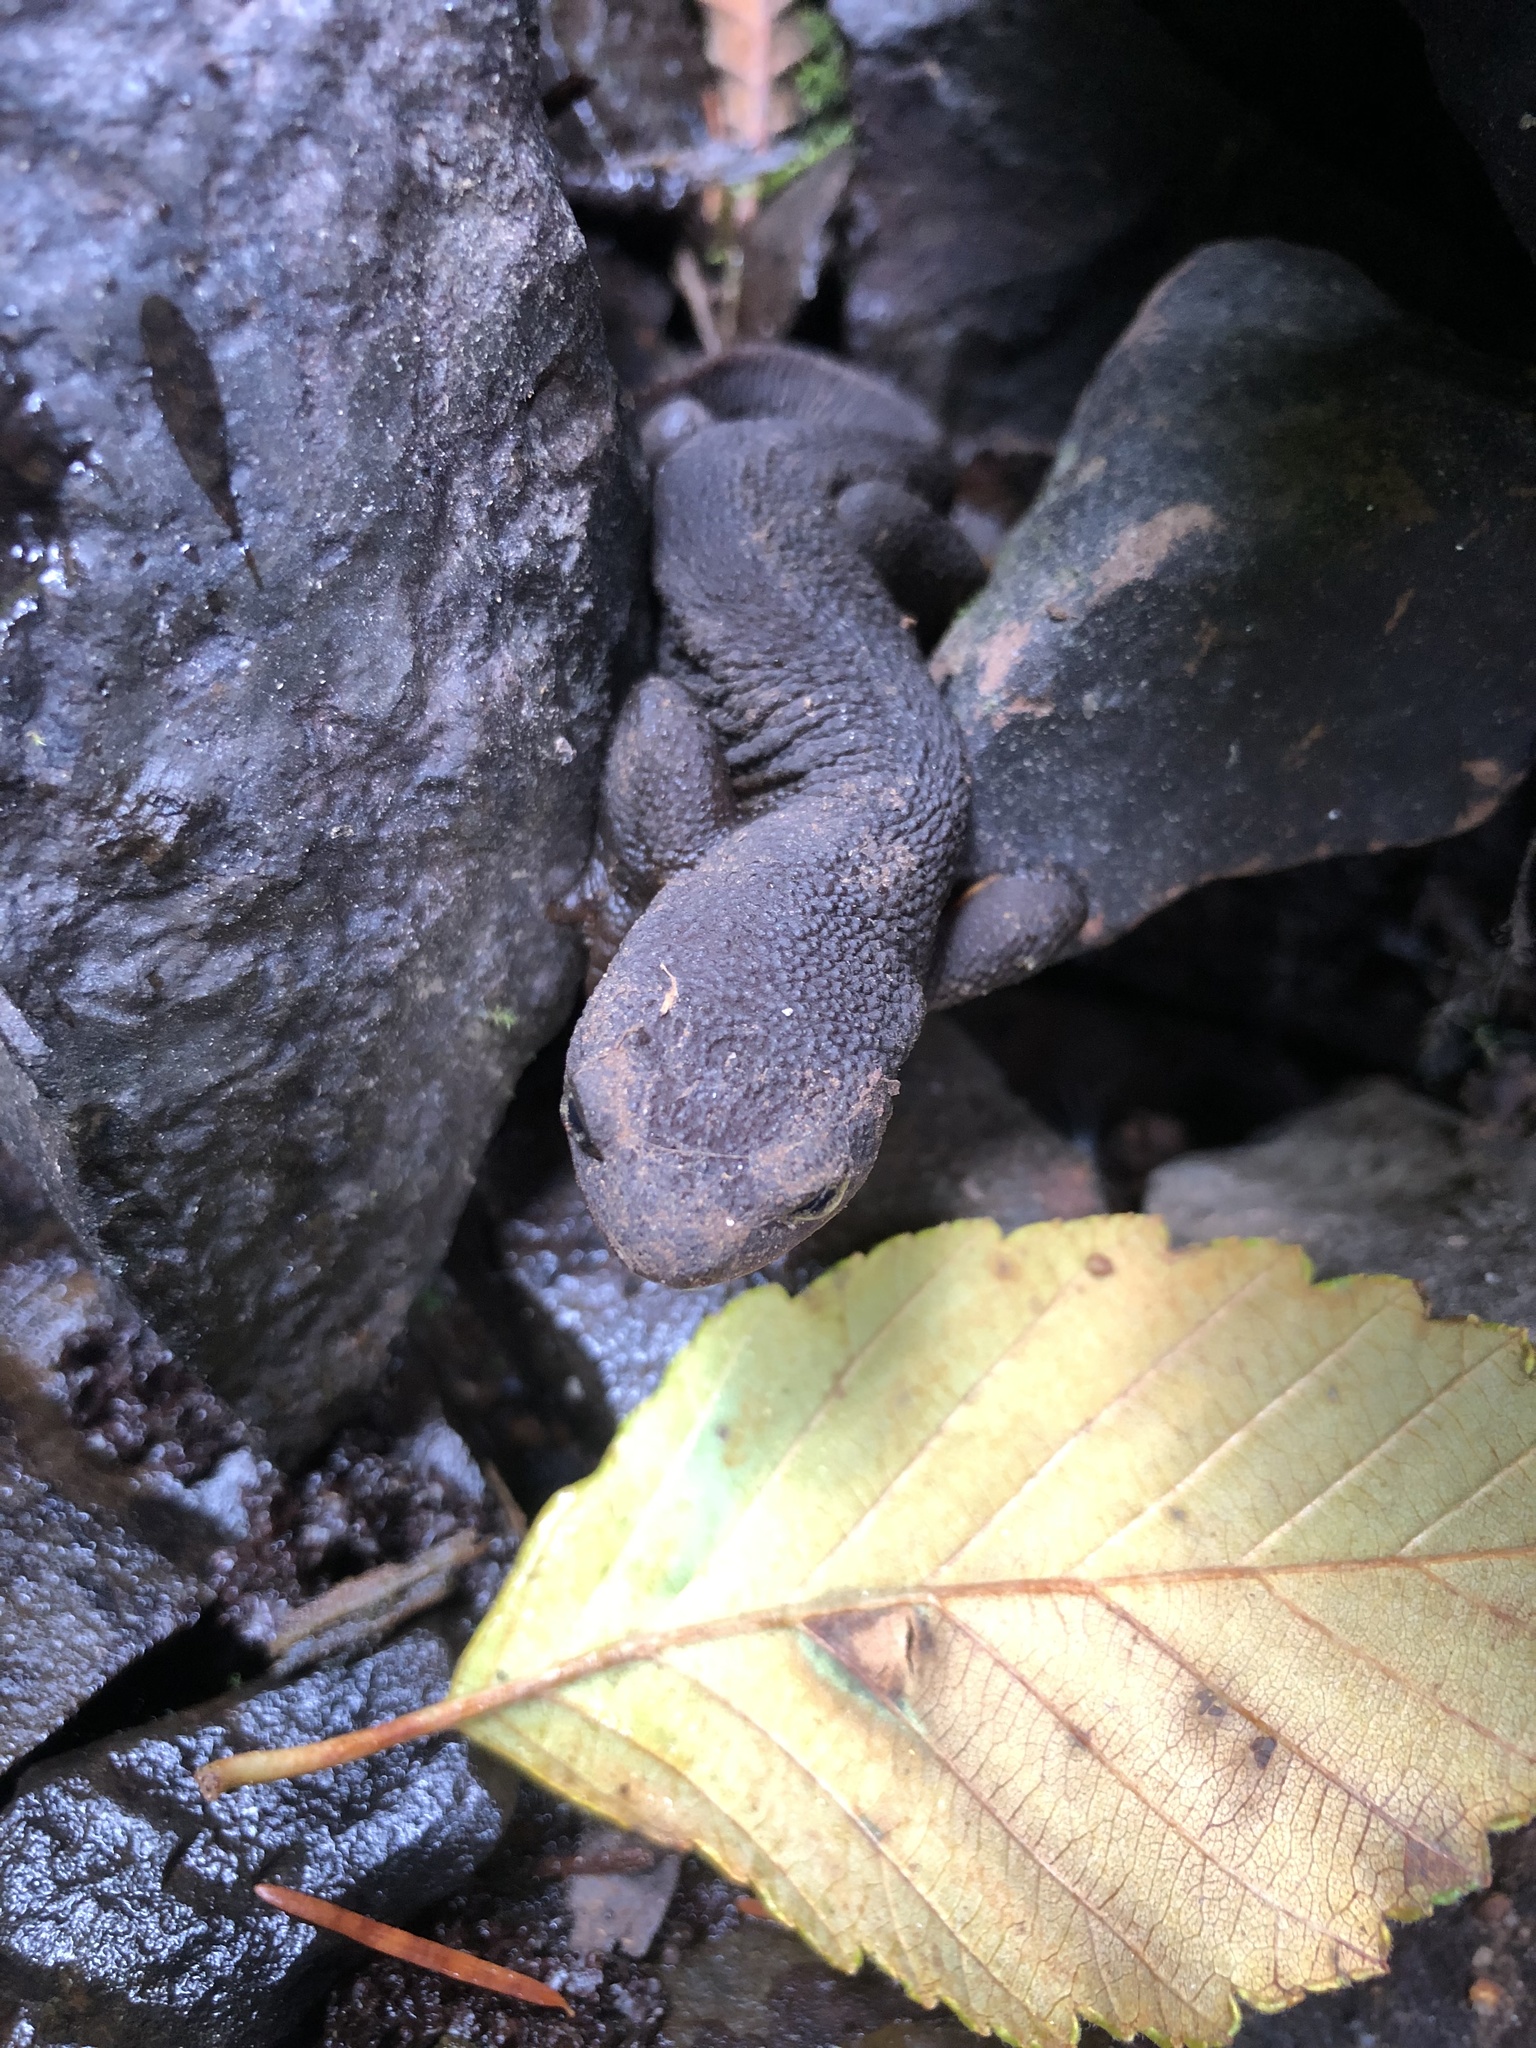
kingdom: Animalia
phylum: Chordata
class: Amphibia
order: Caudata
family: Salamandridae
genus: Taricha
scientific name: Taricha granulosa
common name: Roughskin newt
